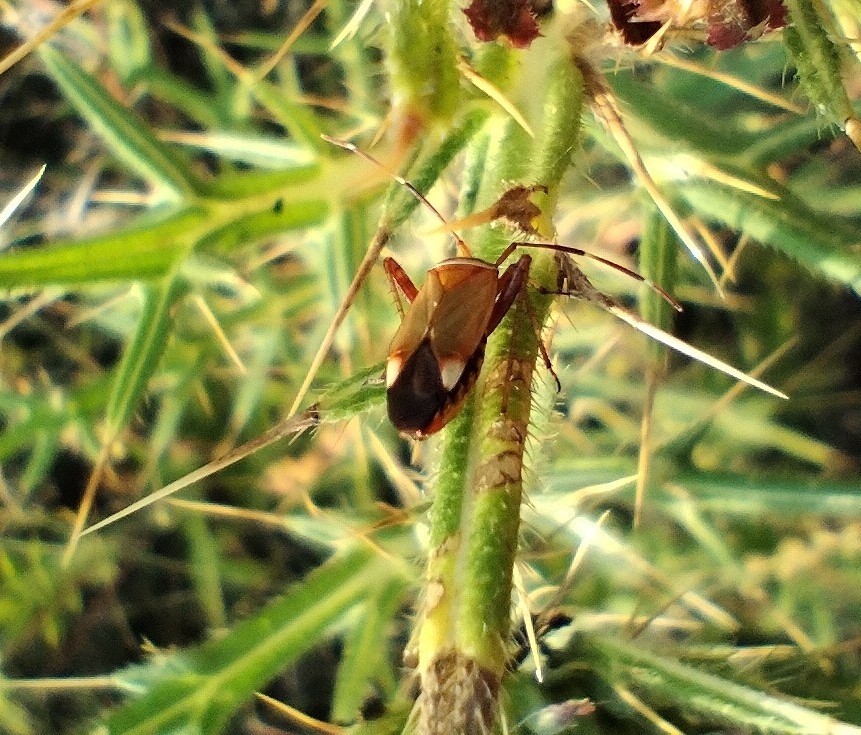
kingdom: Animalia
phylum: Arthropoda
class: Insecta
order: Hemiptera
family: Miridae
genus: Adelphocoris
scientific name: Adelphocoris vandalicus
